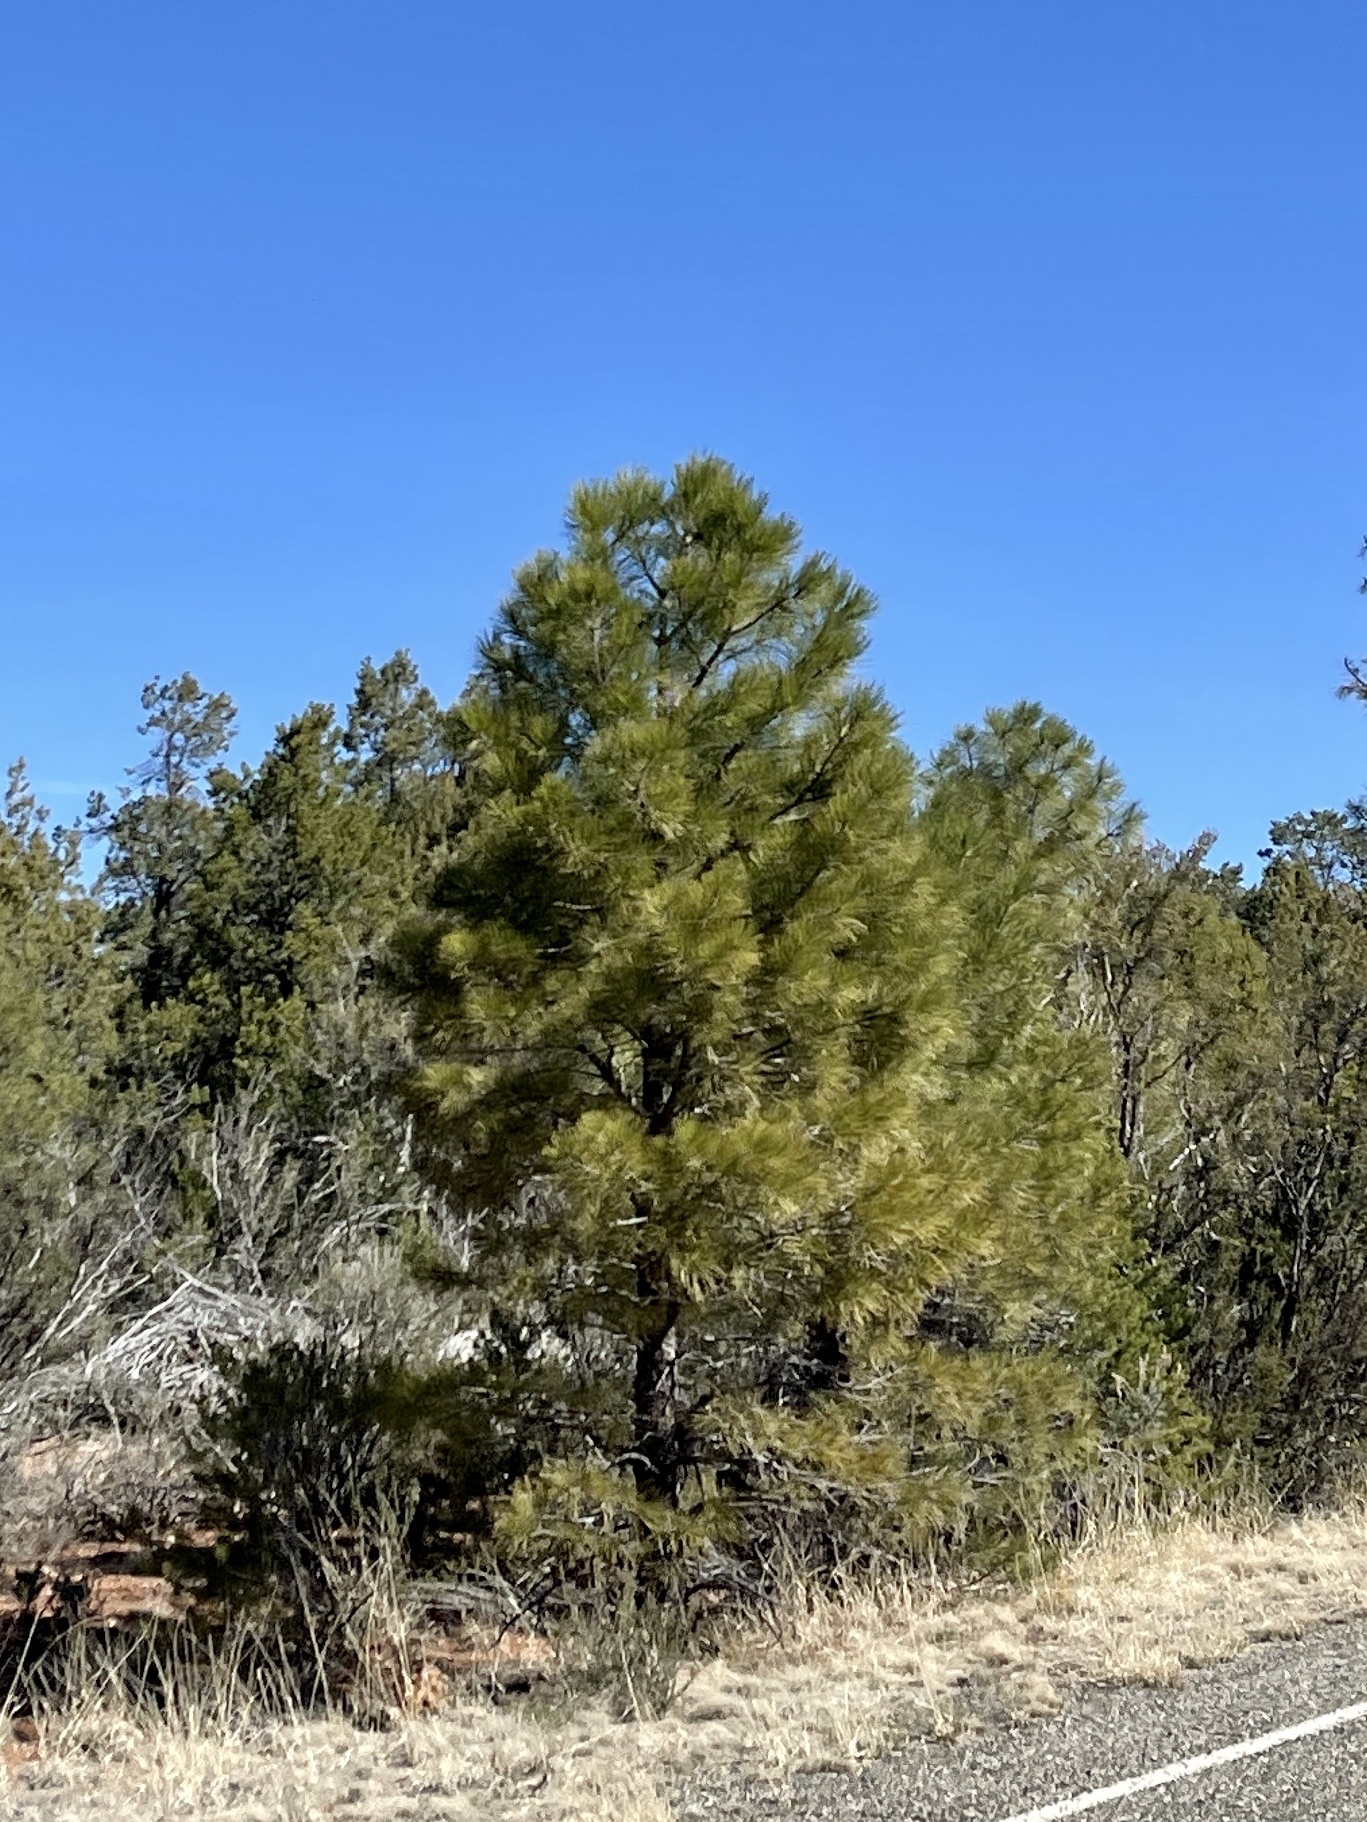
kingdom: Plantae
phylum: Tracheophyta
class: Pinopsida
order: Pinales
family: Pinaceae
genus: Pinus
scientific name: Pinus ponderosa
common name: Western yellow-pine
